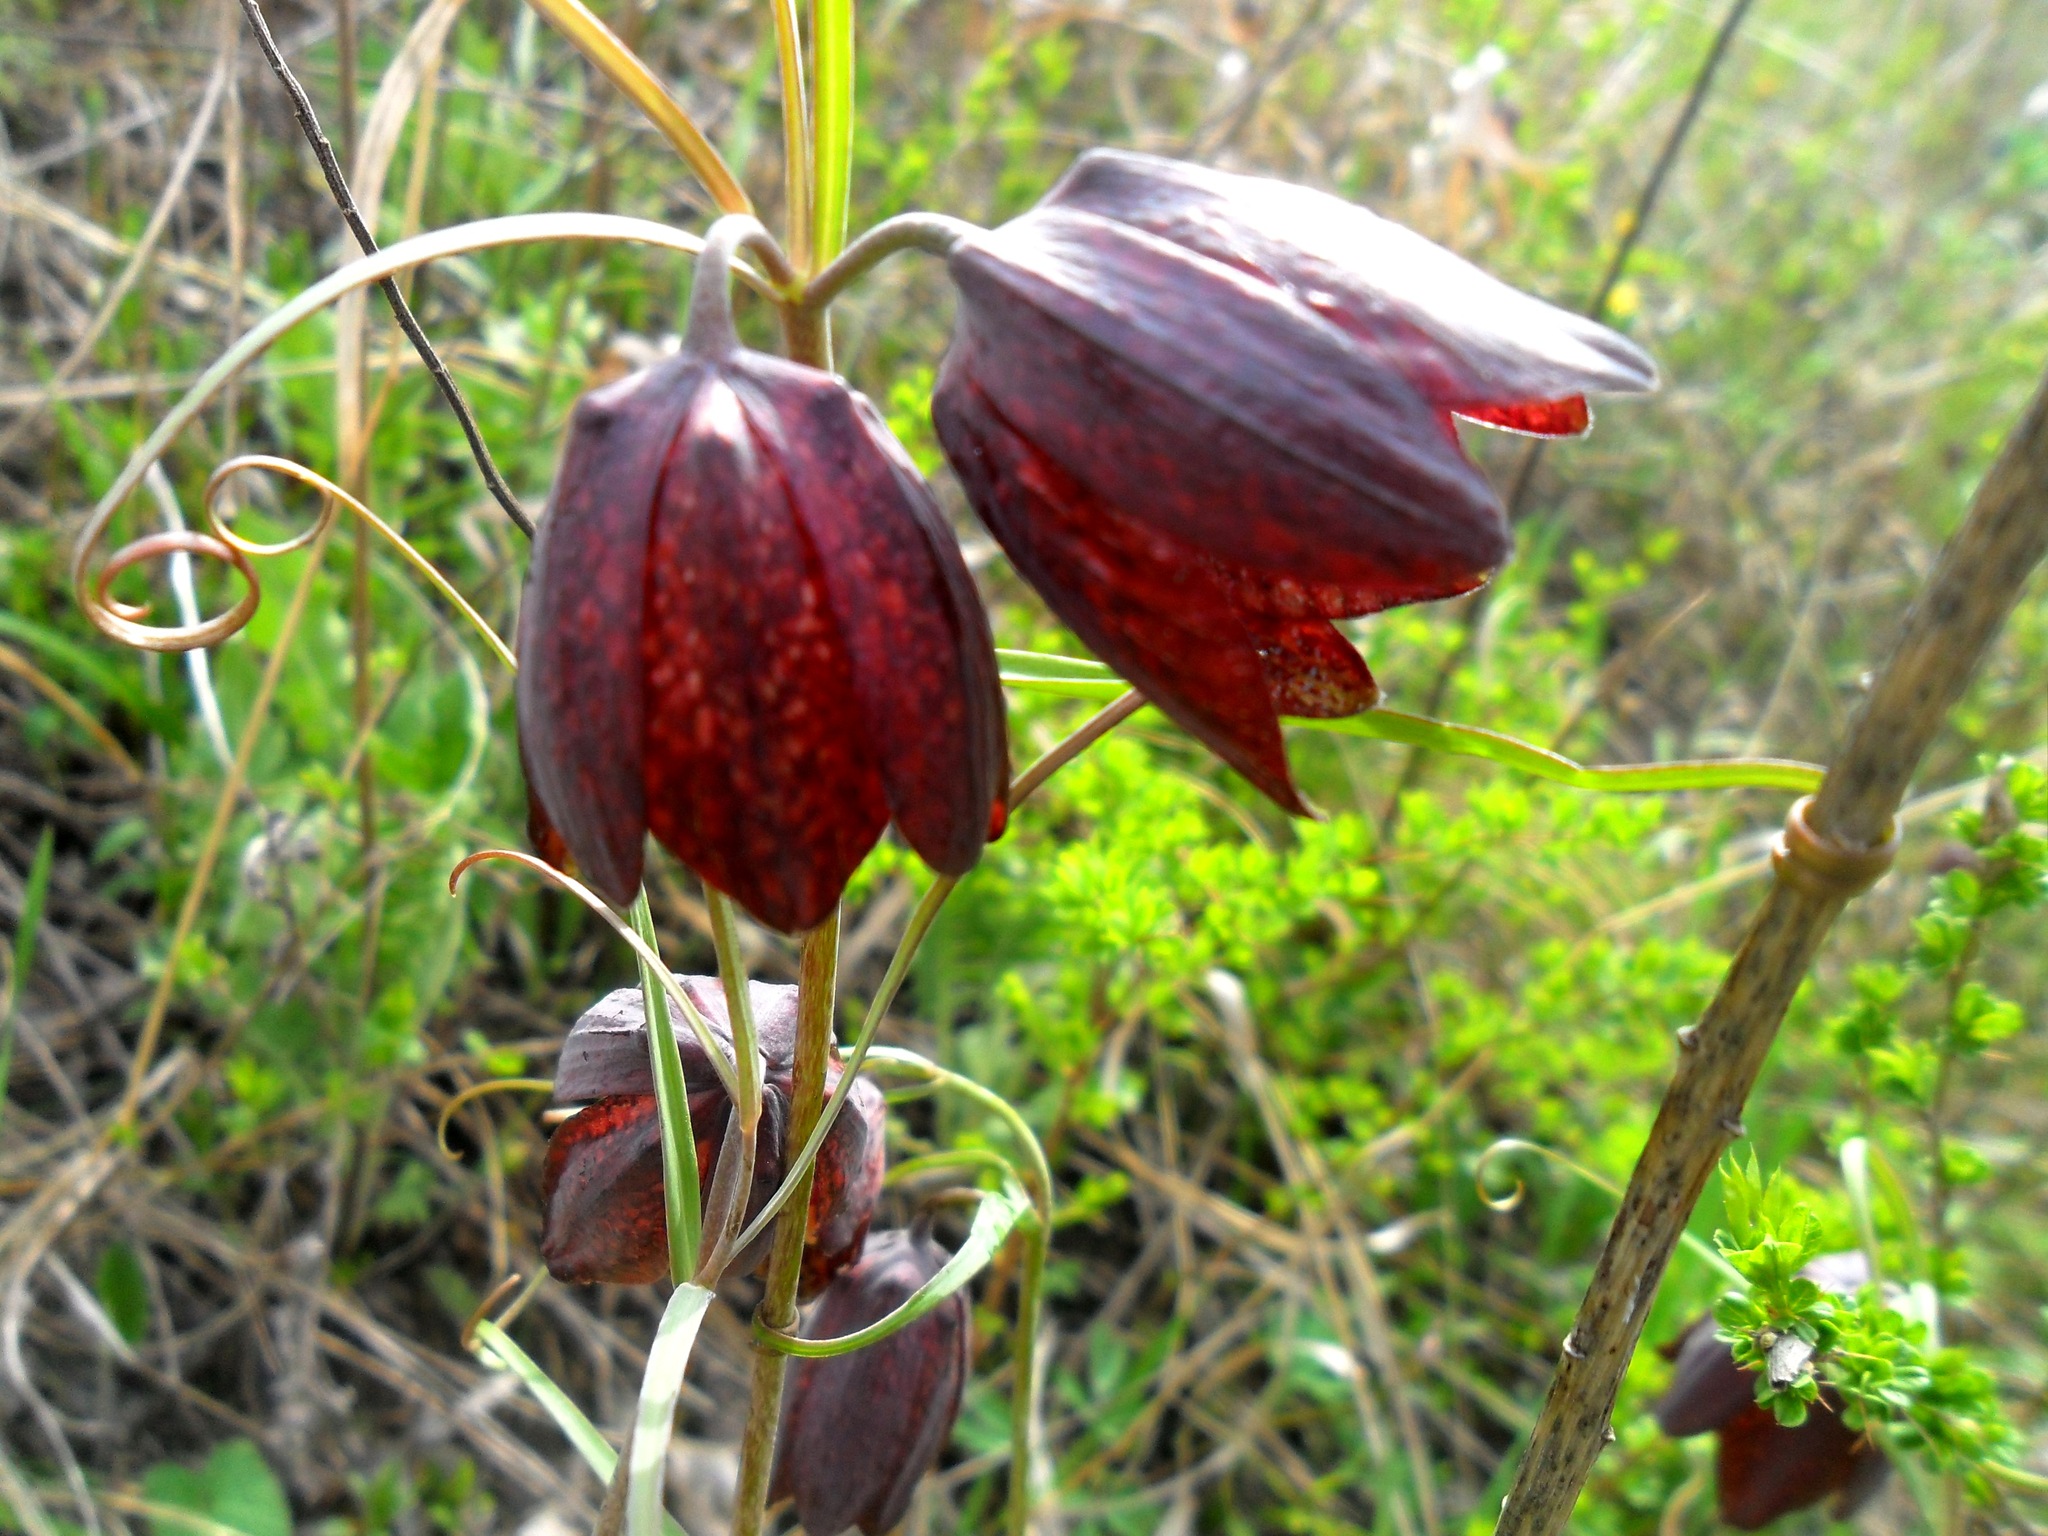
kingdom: Plantae
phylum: Tracheophyta
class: Liliopsida
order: Liliales
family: Liliaceae
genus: Fritillaria
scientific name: Fritillaria ruthenica
